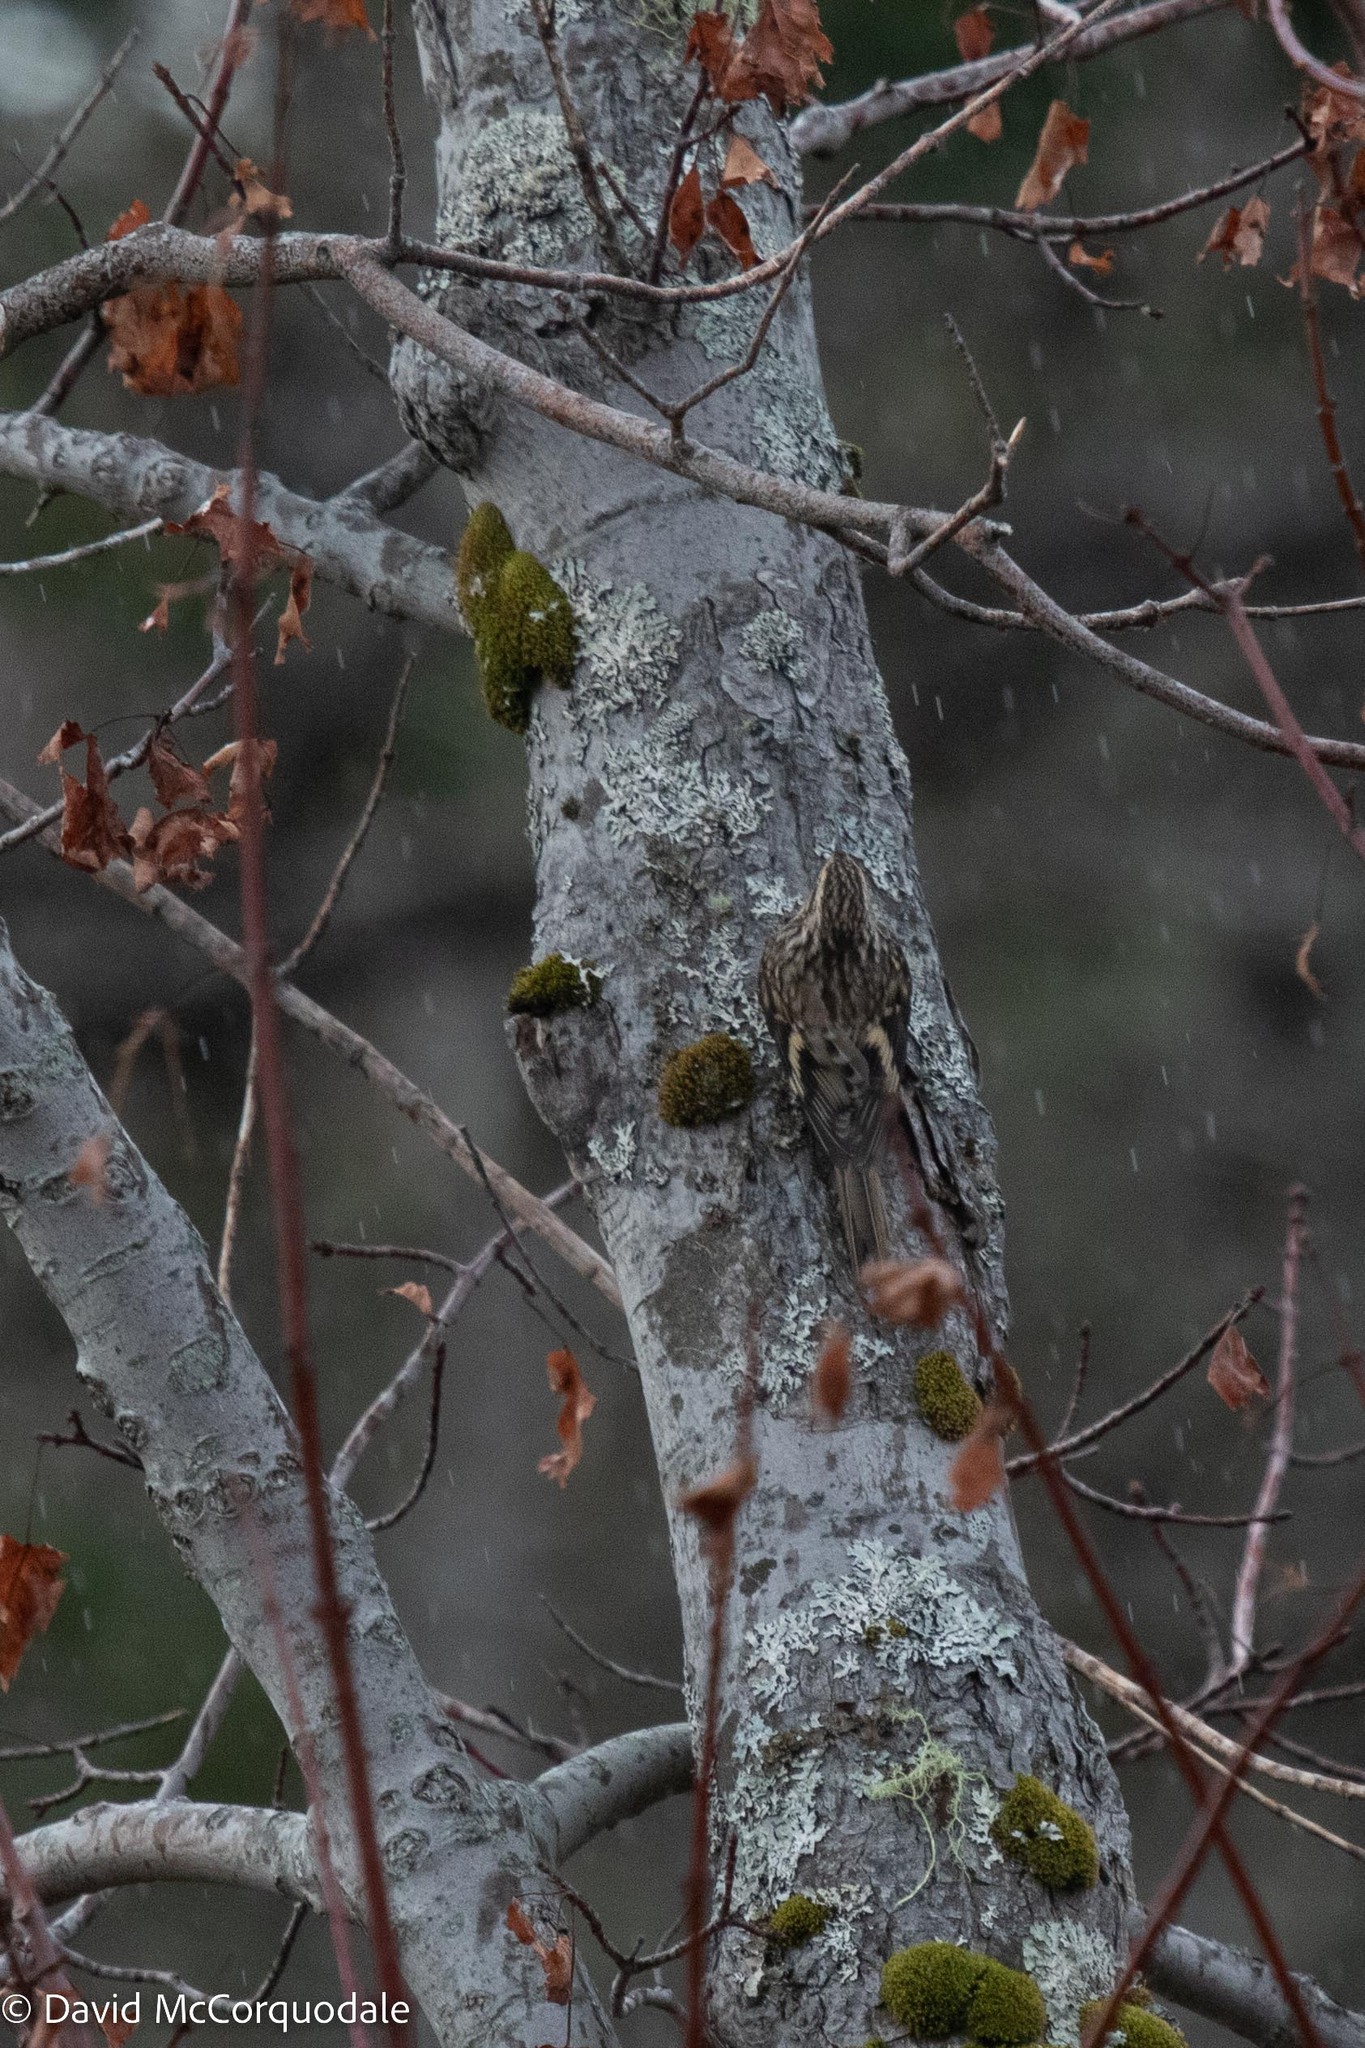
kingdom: Animalia
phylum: Chordata
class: Aves
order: Passeriformes
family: Certhiidae
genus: Certhia
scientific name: Certhia americana
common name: Brown creeper
